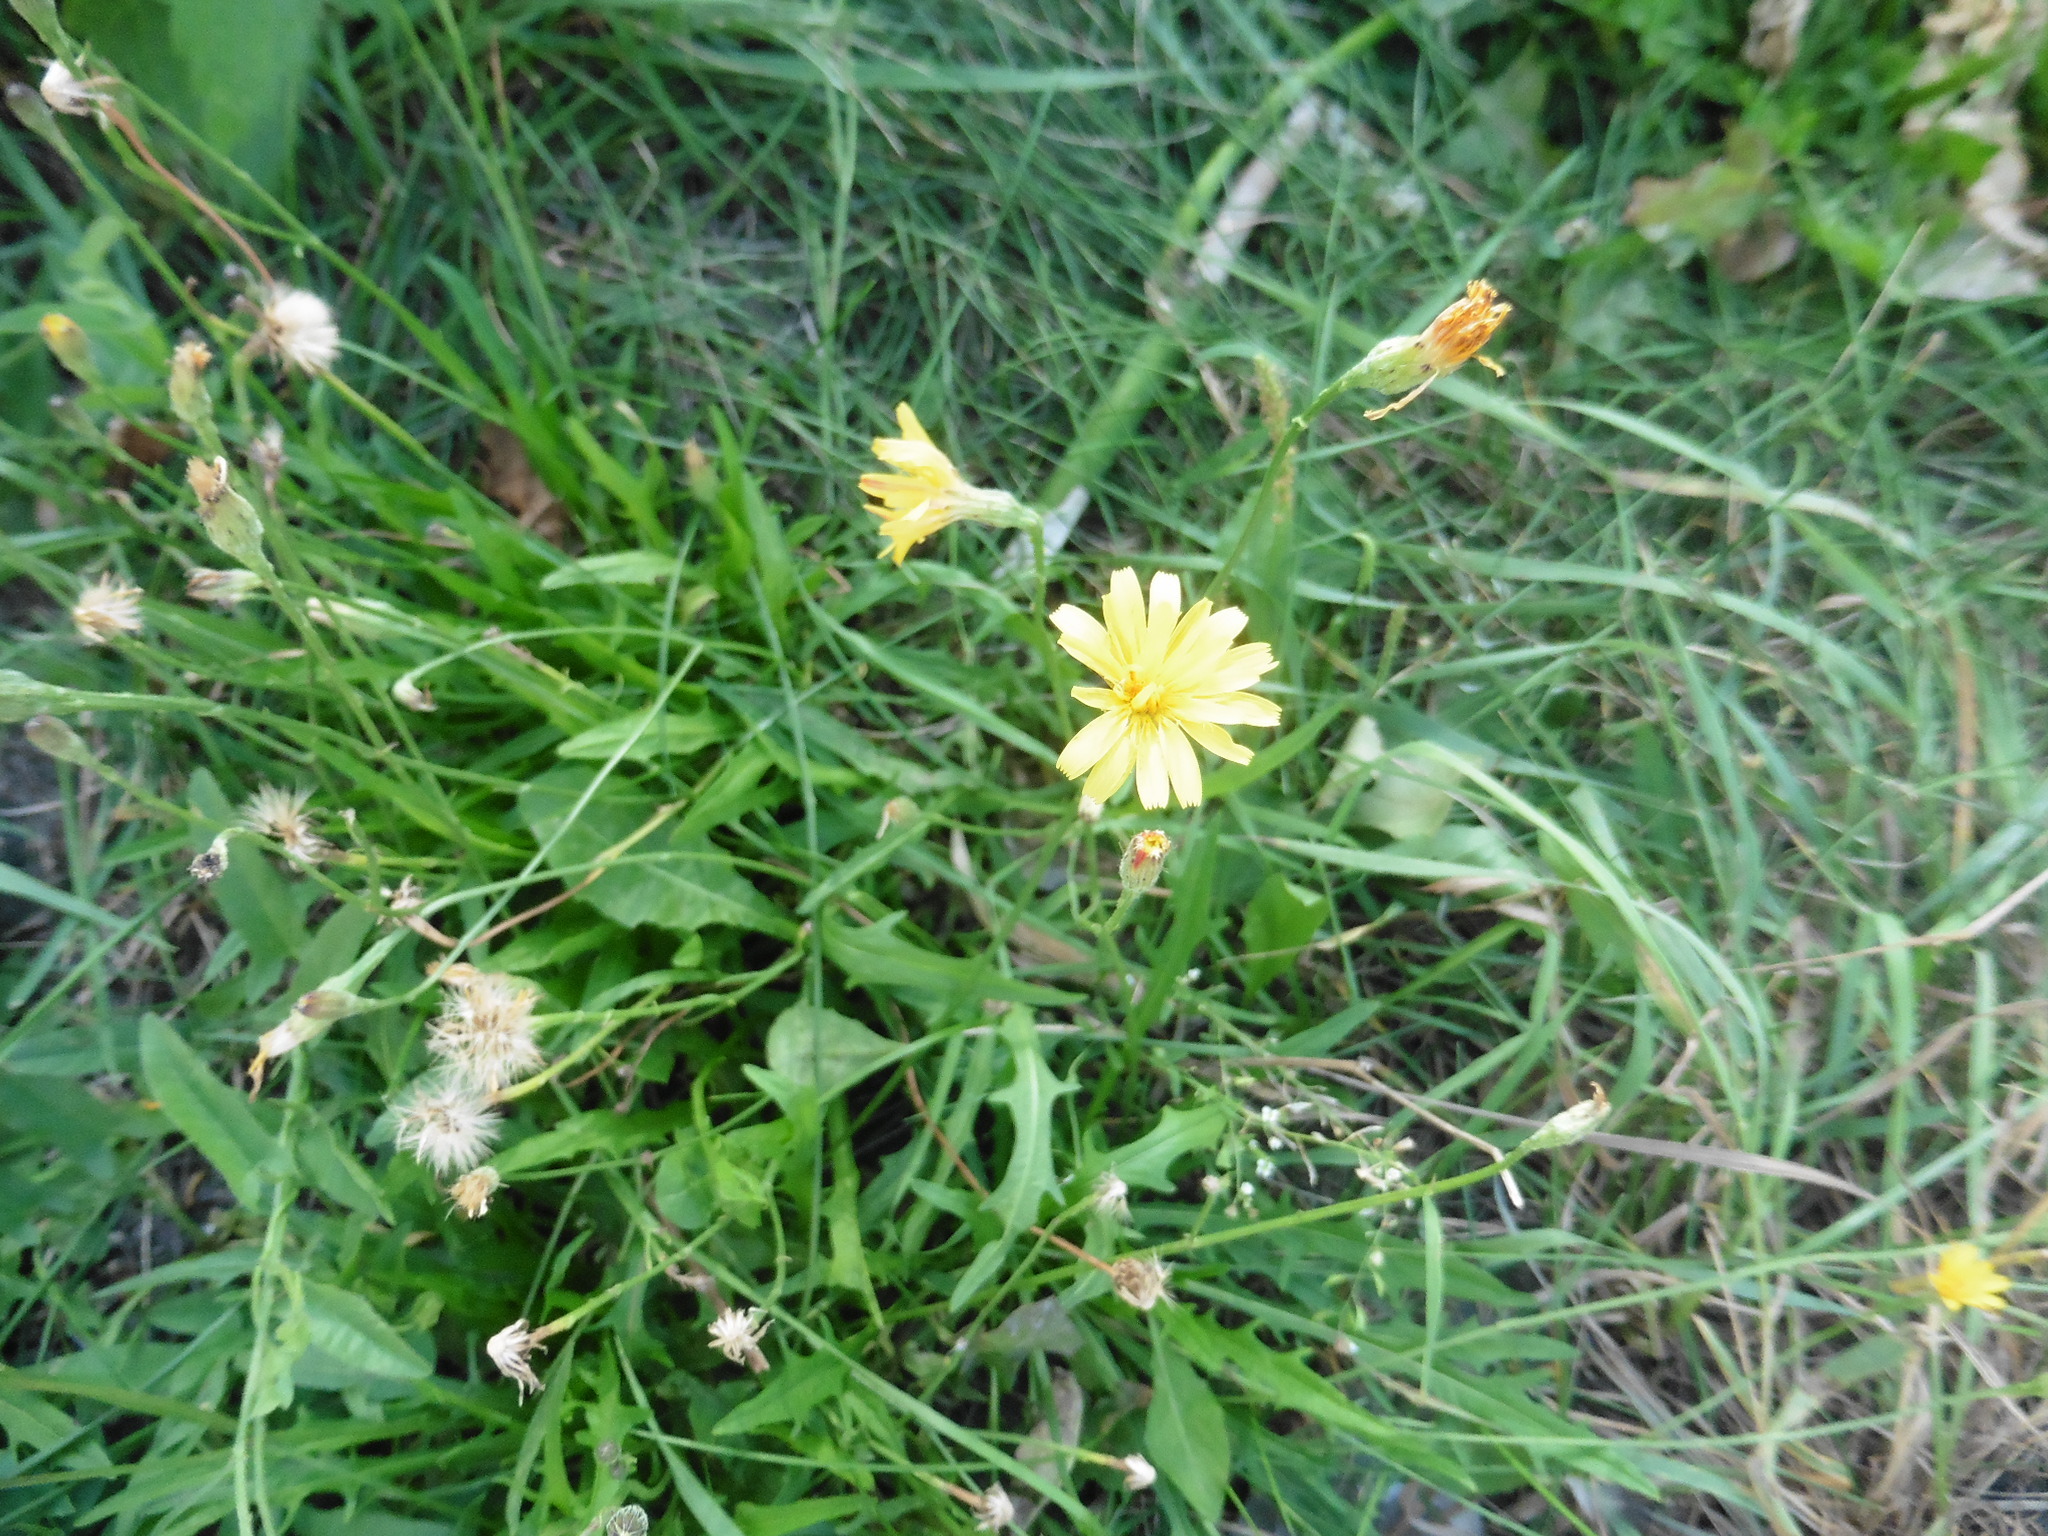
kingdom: Plantae
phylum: Tracheophyta
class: Magnoliopsida
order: Asterales
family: Asteraceae
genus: Scorzoneroides
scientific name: Scorzoneroides autumnalis
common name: Autumn hawkbit
